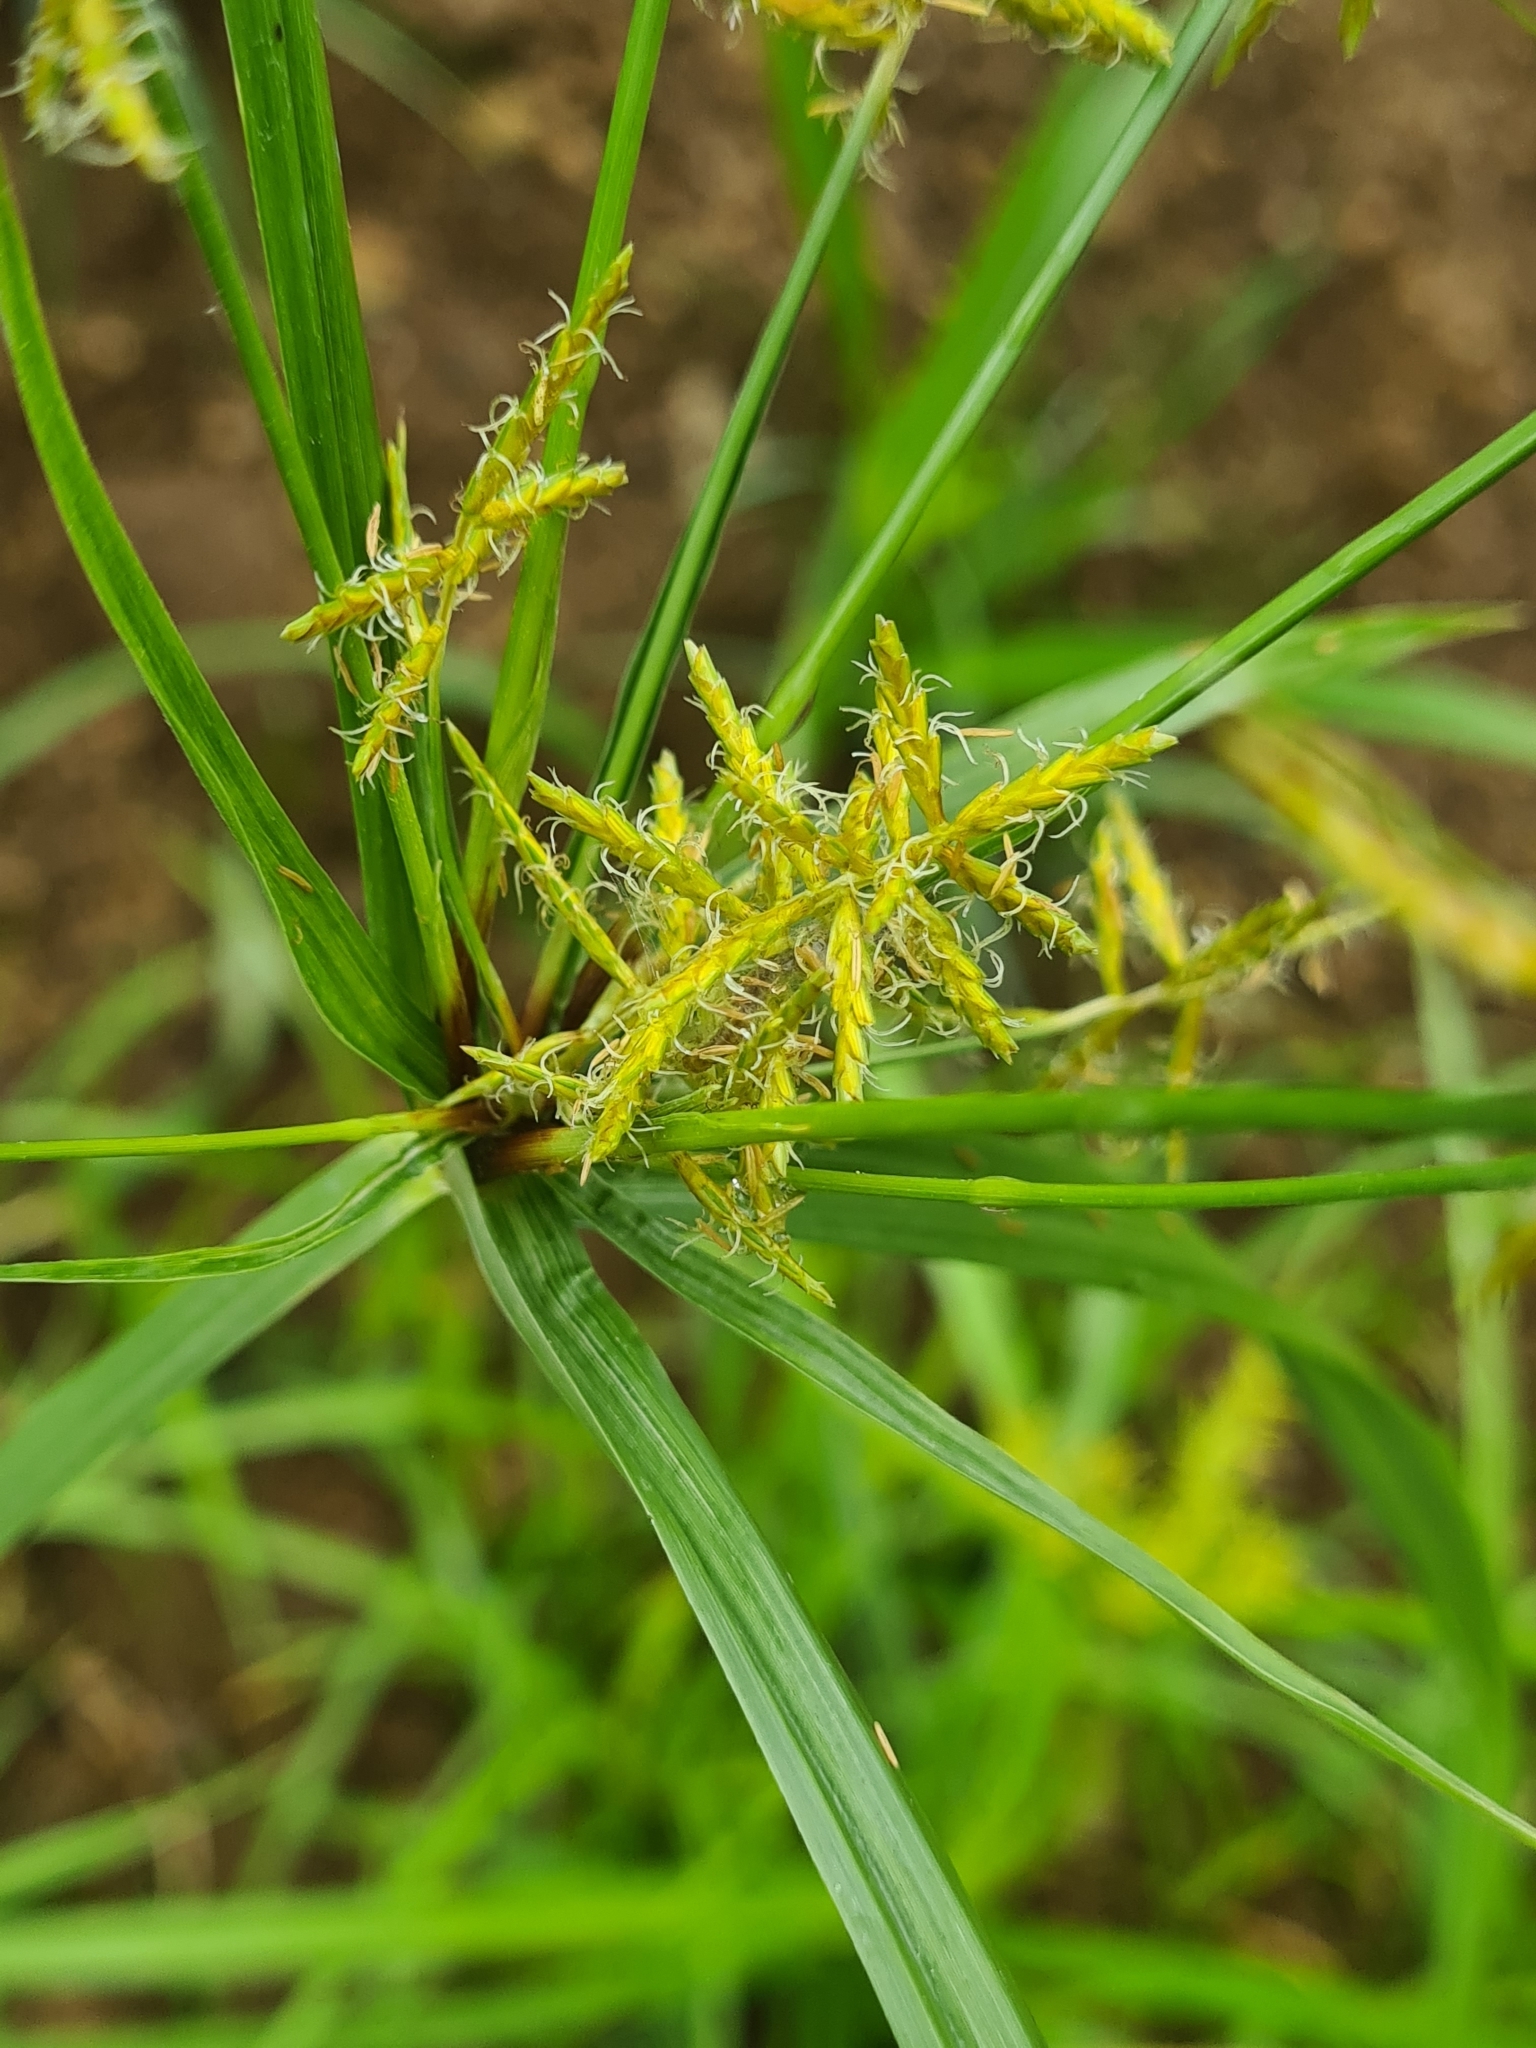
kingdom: Plantae
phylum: Tracheophyta
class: Liliopsida
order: Poales
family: Cyperaceae
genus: Cyperus
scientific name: Cyperus esculentus
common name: Yellow nutsedge
